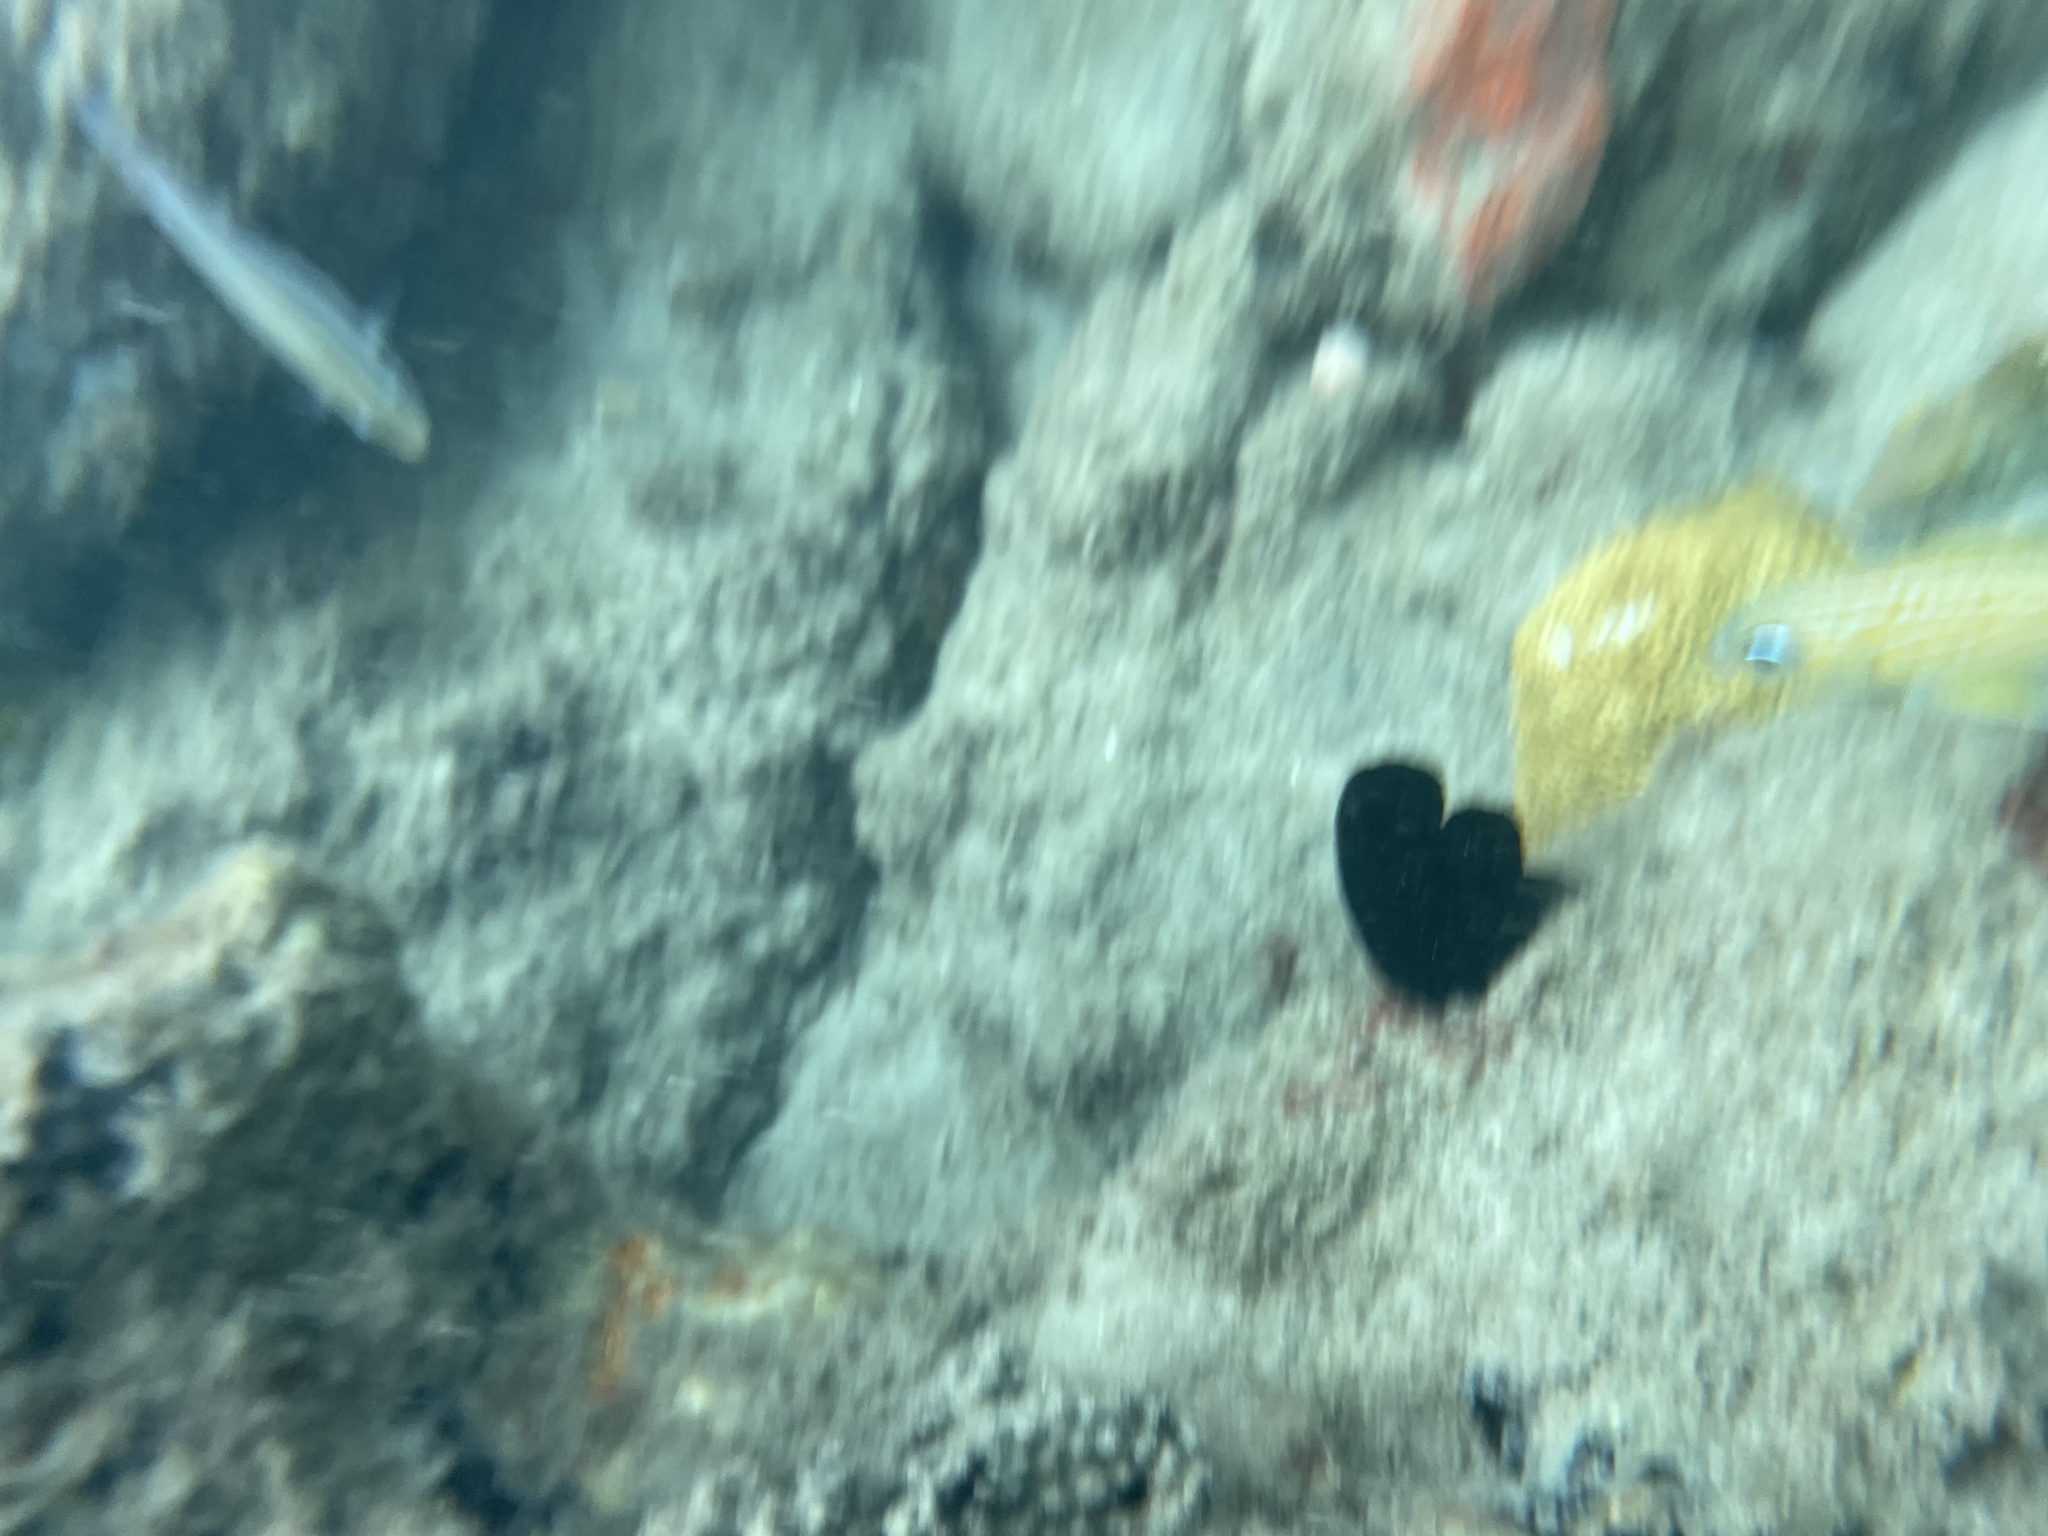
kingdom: Animalia
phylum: Chordata
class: Ascidiacea
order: Phlebobranchia
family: Ascidiidae
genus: Phallusia
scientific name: Phallusia nigra
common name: Black tunicate
